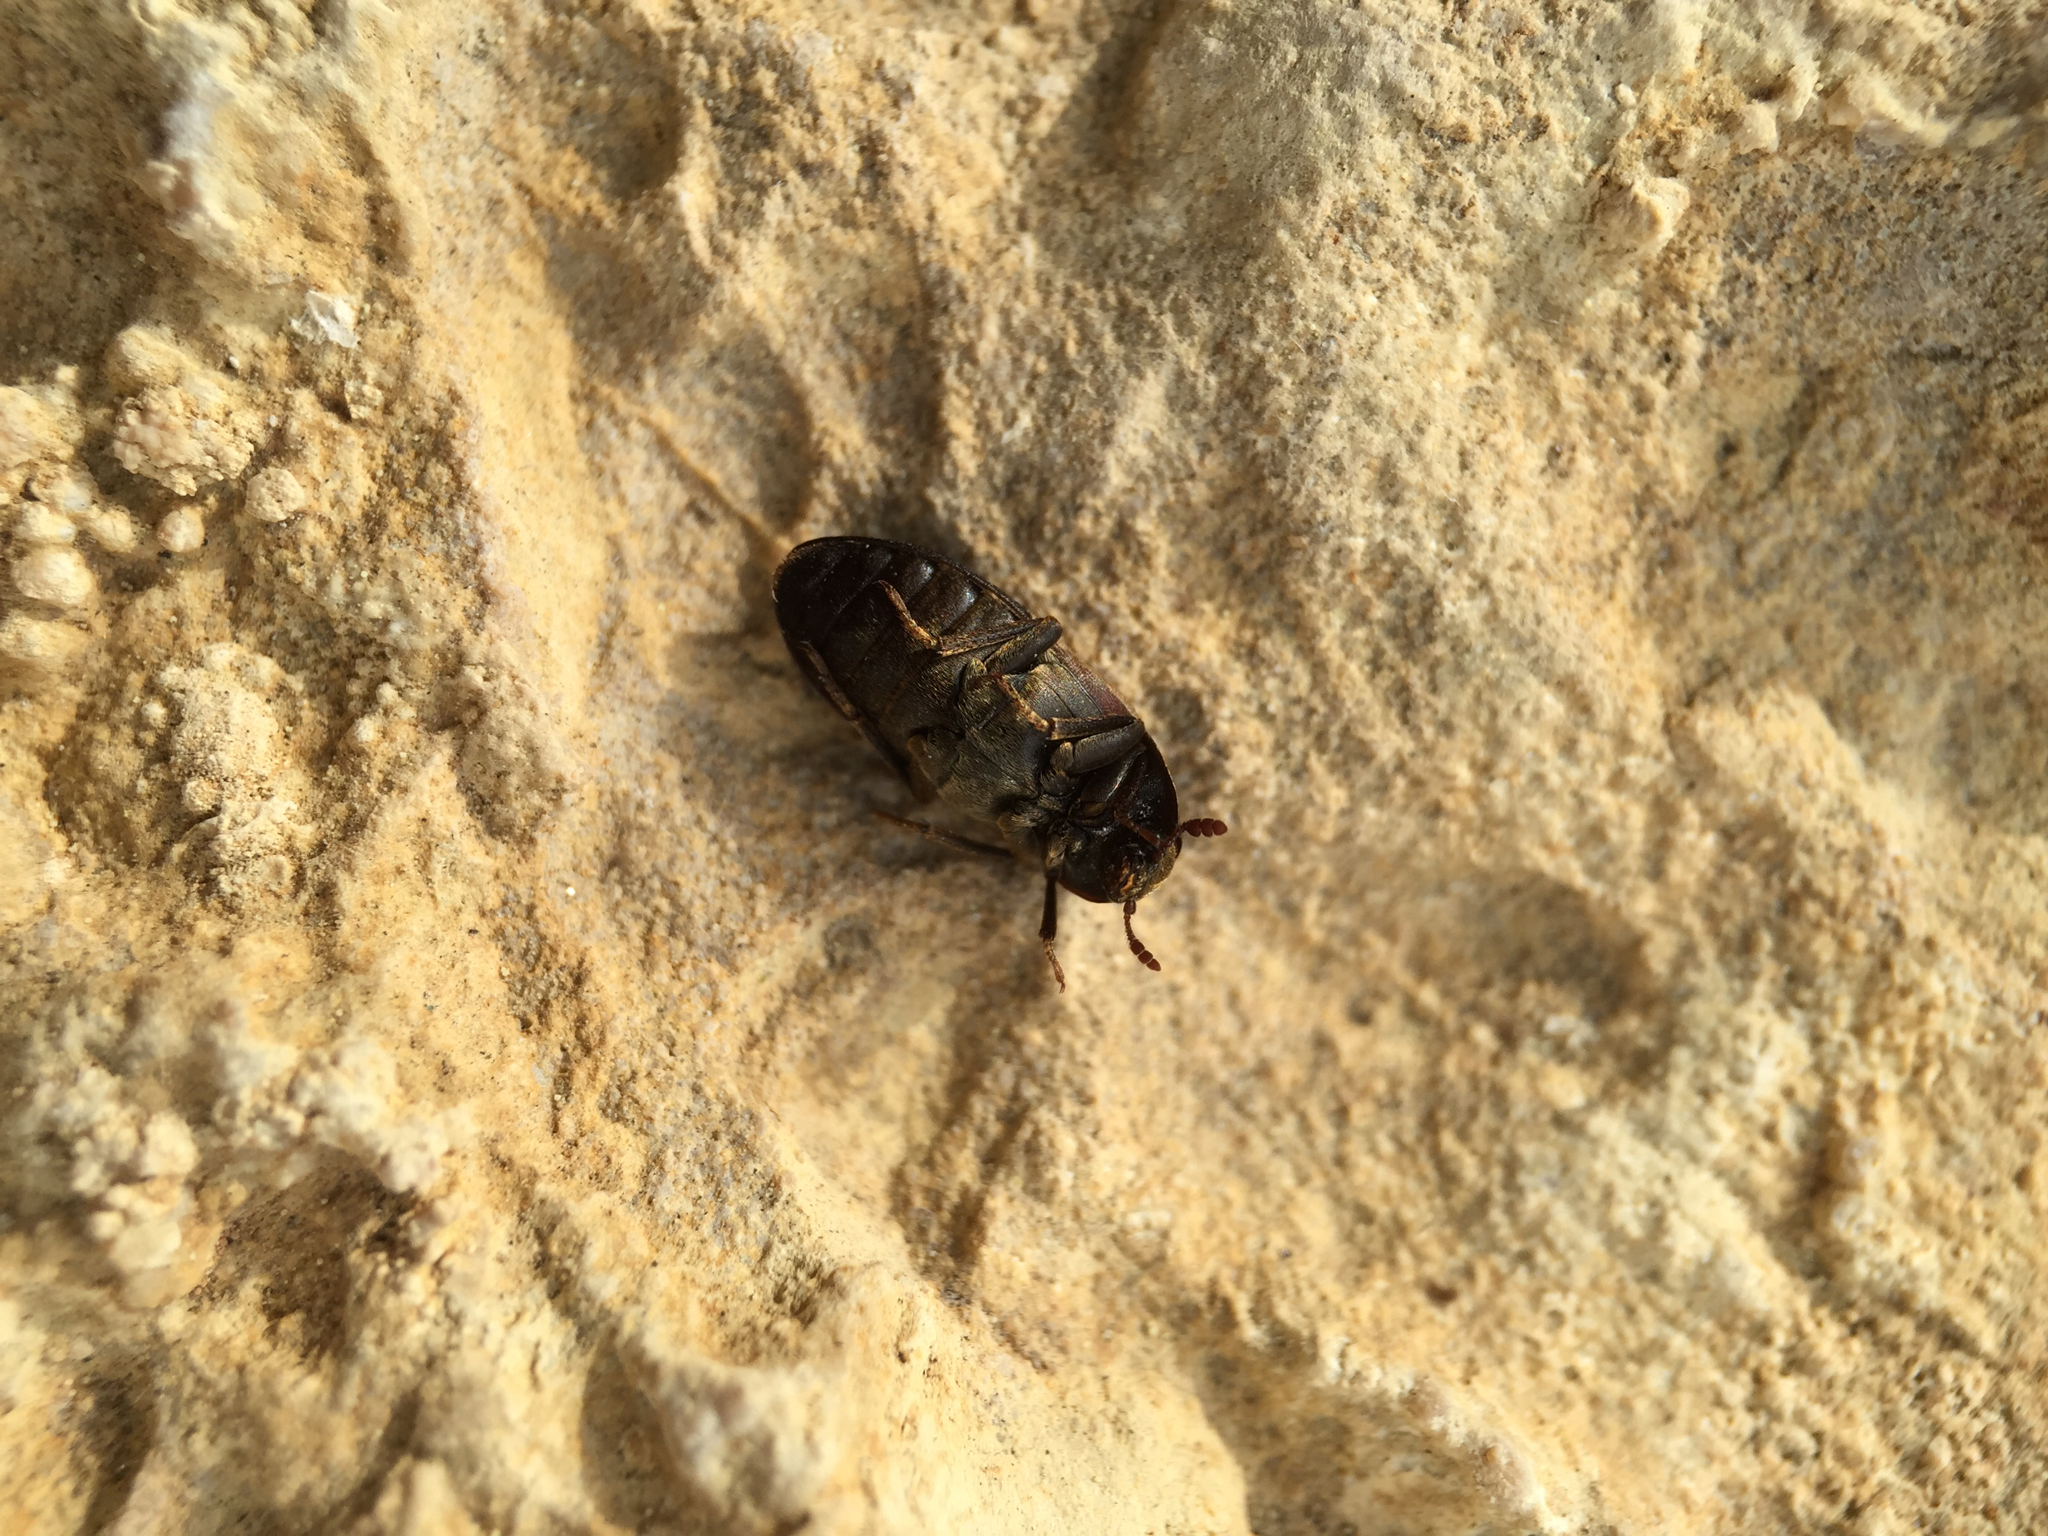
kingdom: Animalia
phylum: Arthropoda
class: Insecta
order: Coleoptera
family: Dermestidae
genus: Dermestes
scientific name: Dermestes lardarius
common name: Larder beetle
